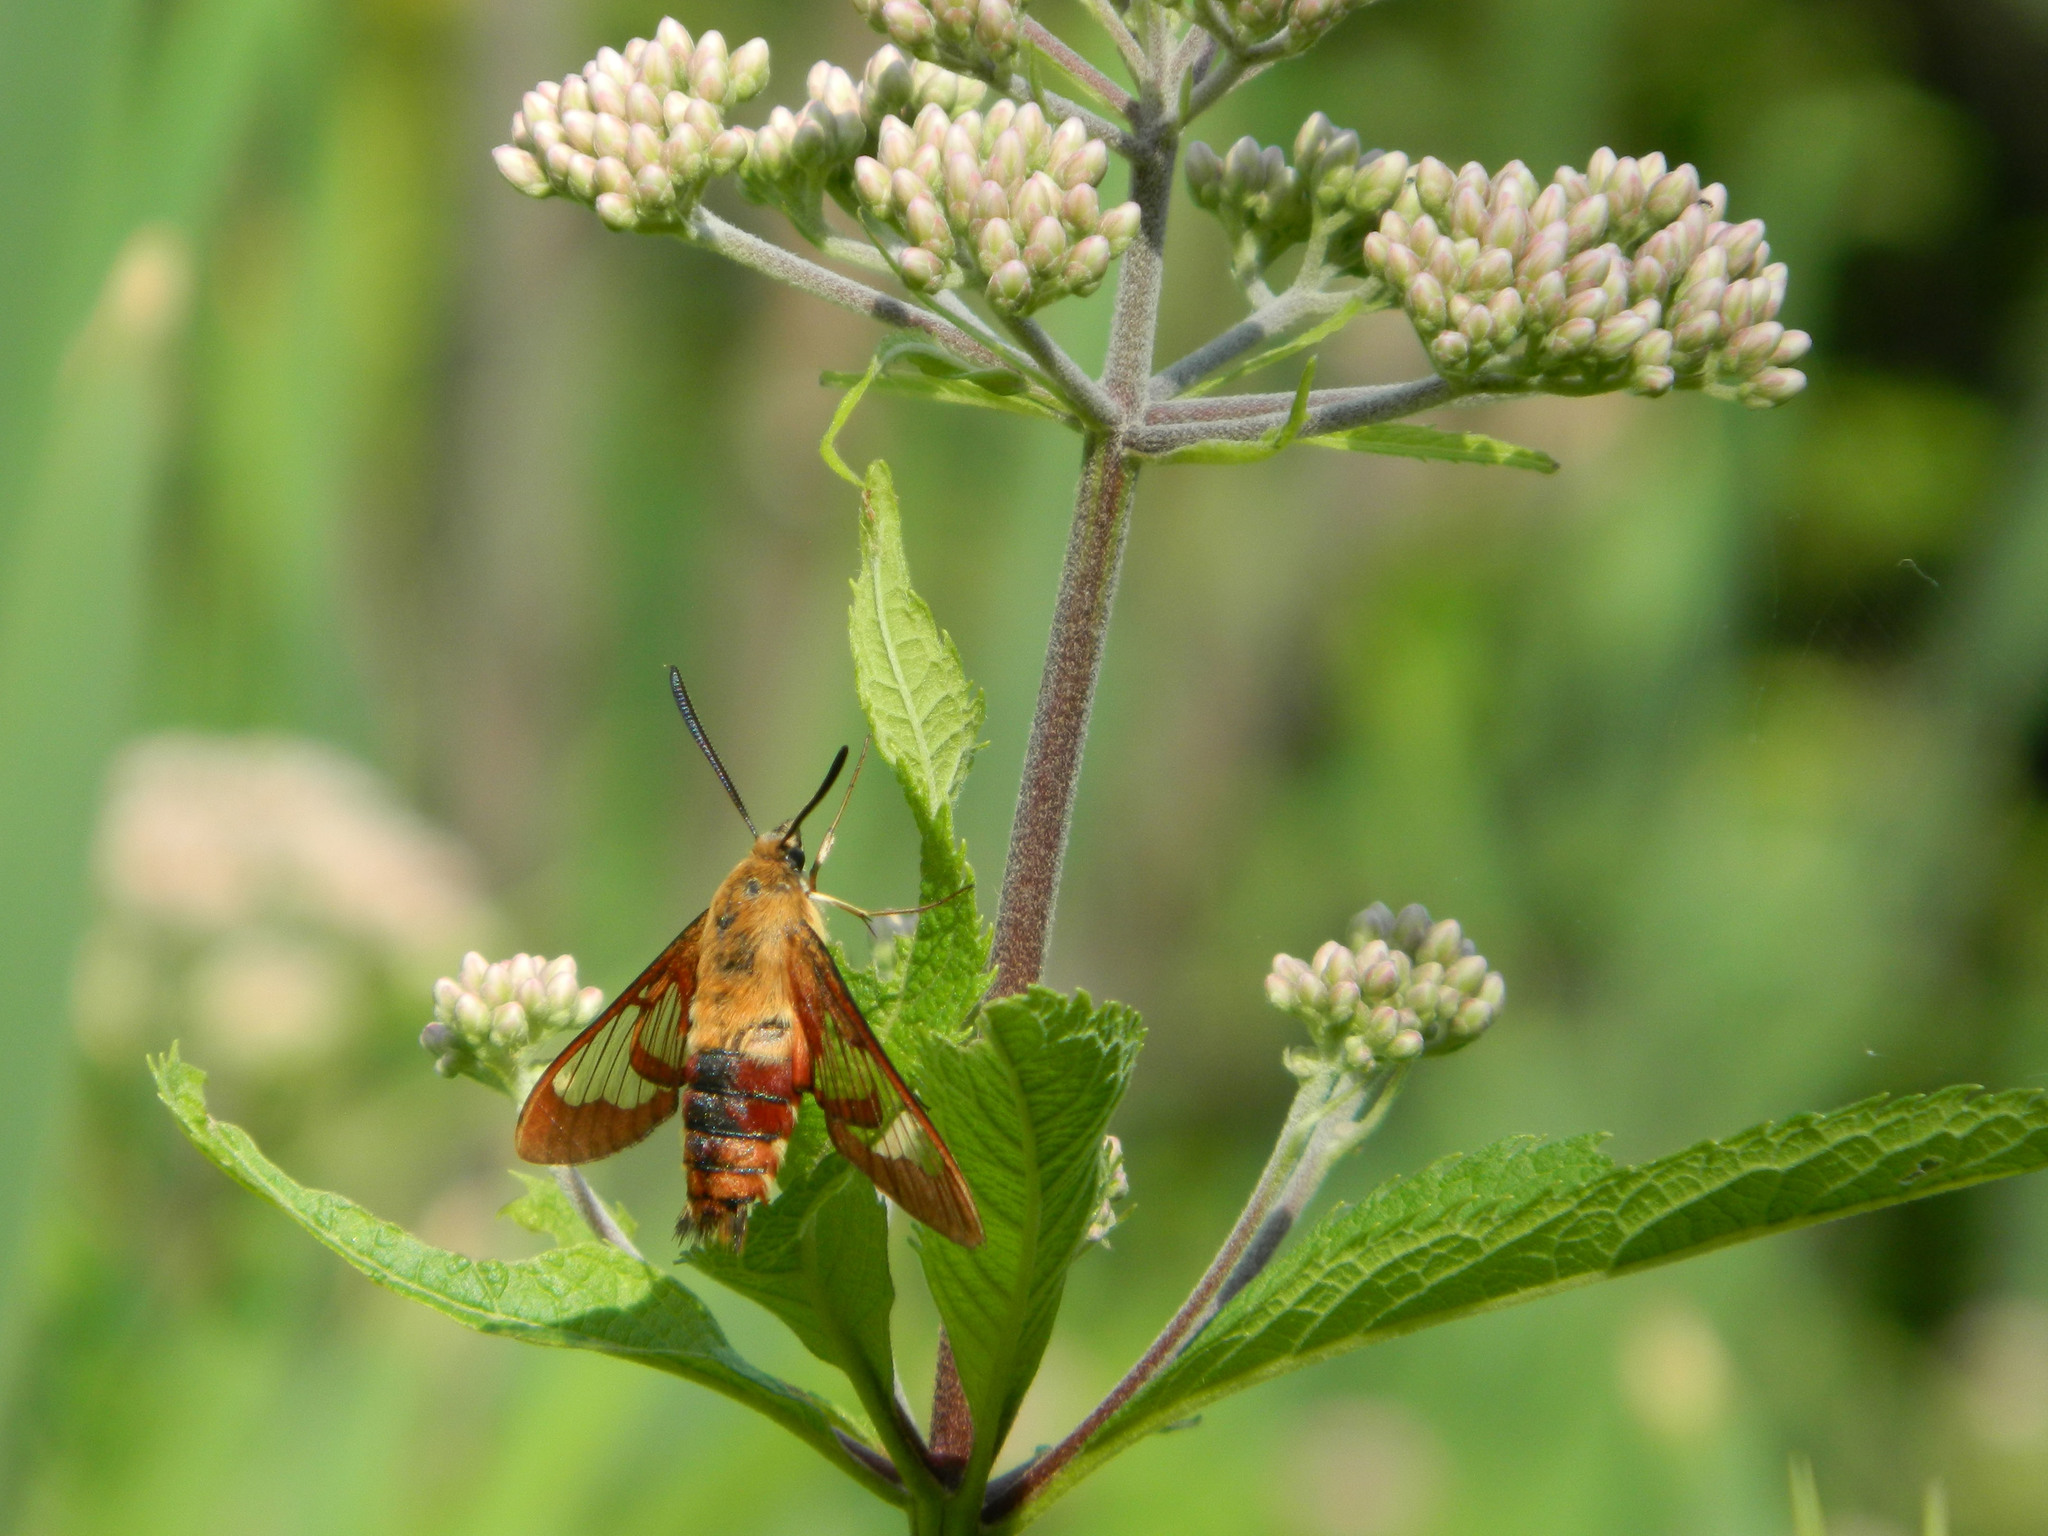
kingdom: Animalia
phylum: Arthropoda
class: Insecta
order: Lepidoptera
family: Sphingidae
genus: Hemaris
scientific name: Hemaris thysbe
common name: Common clear-wing
